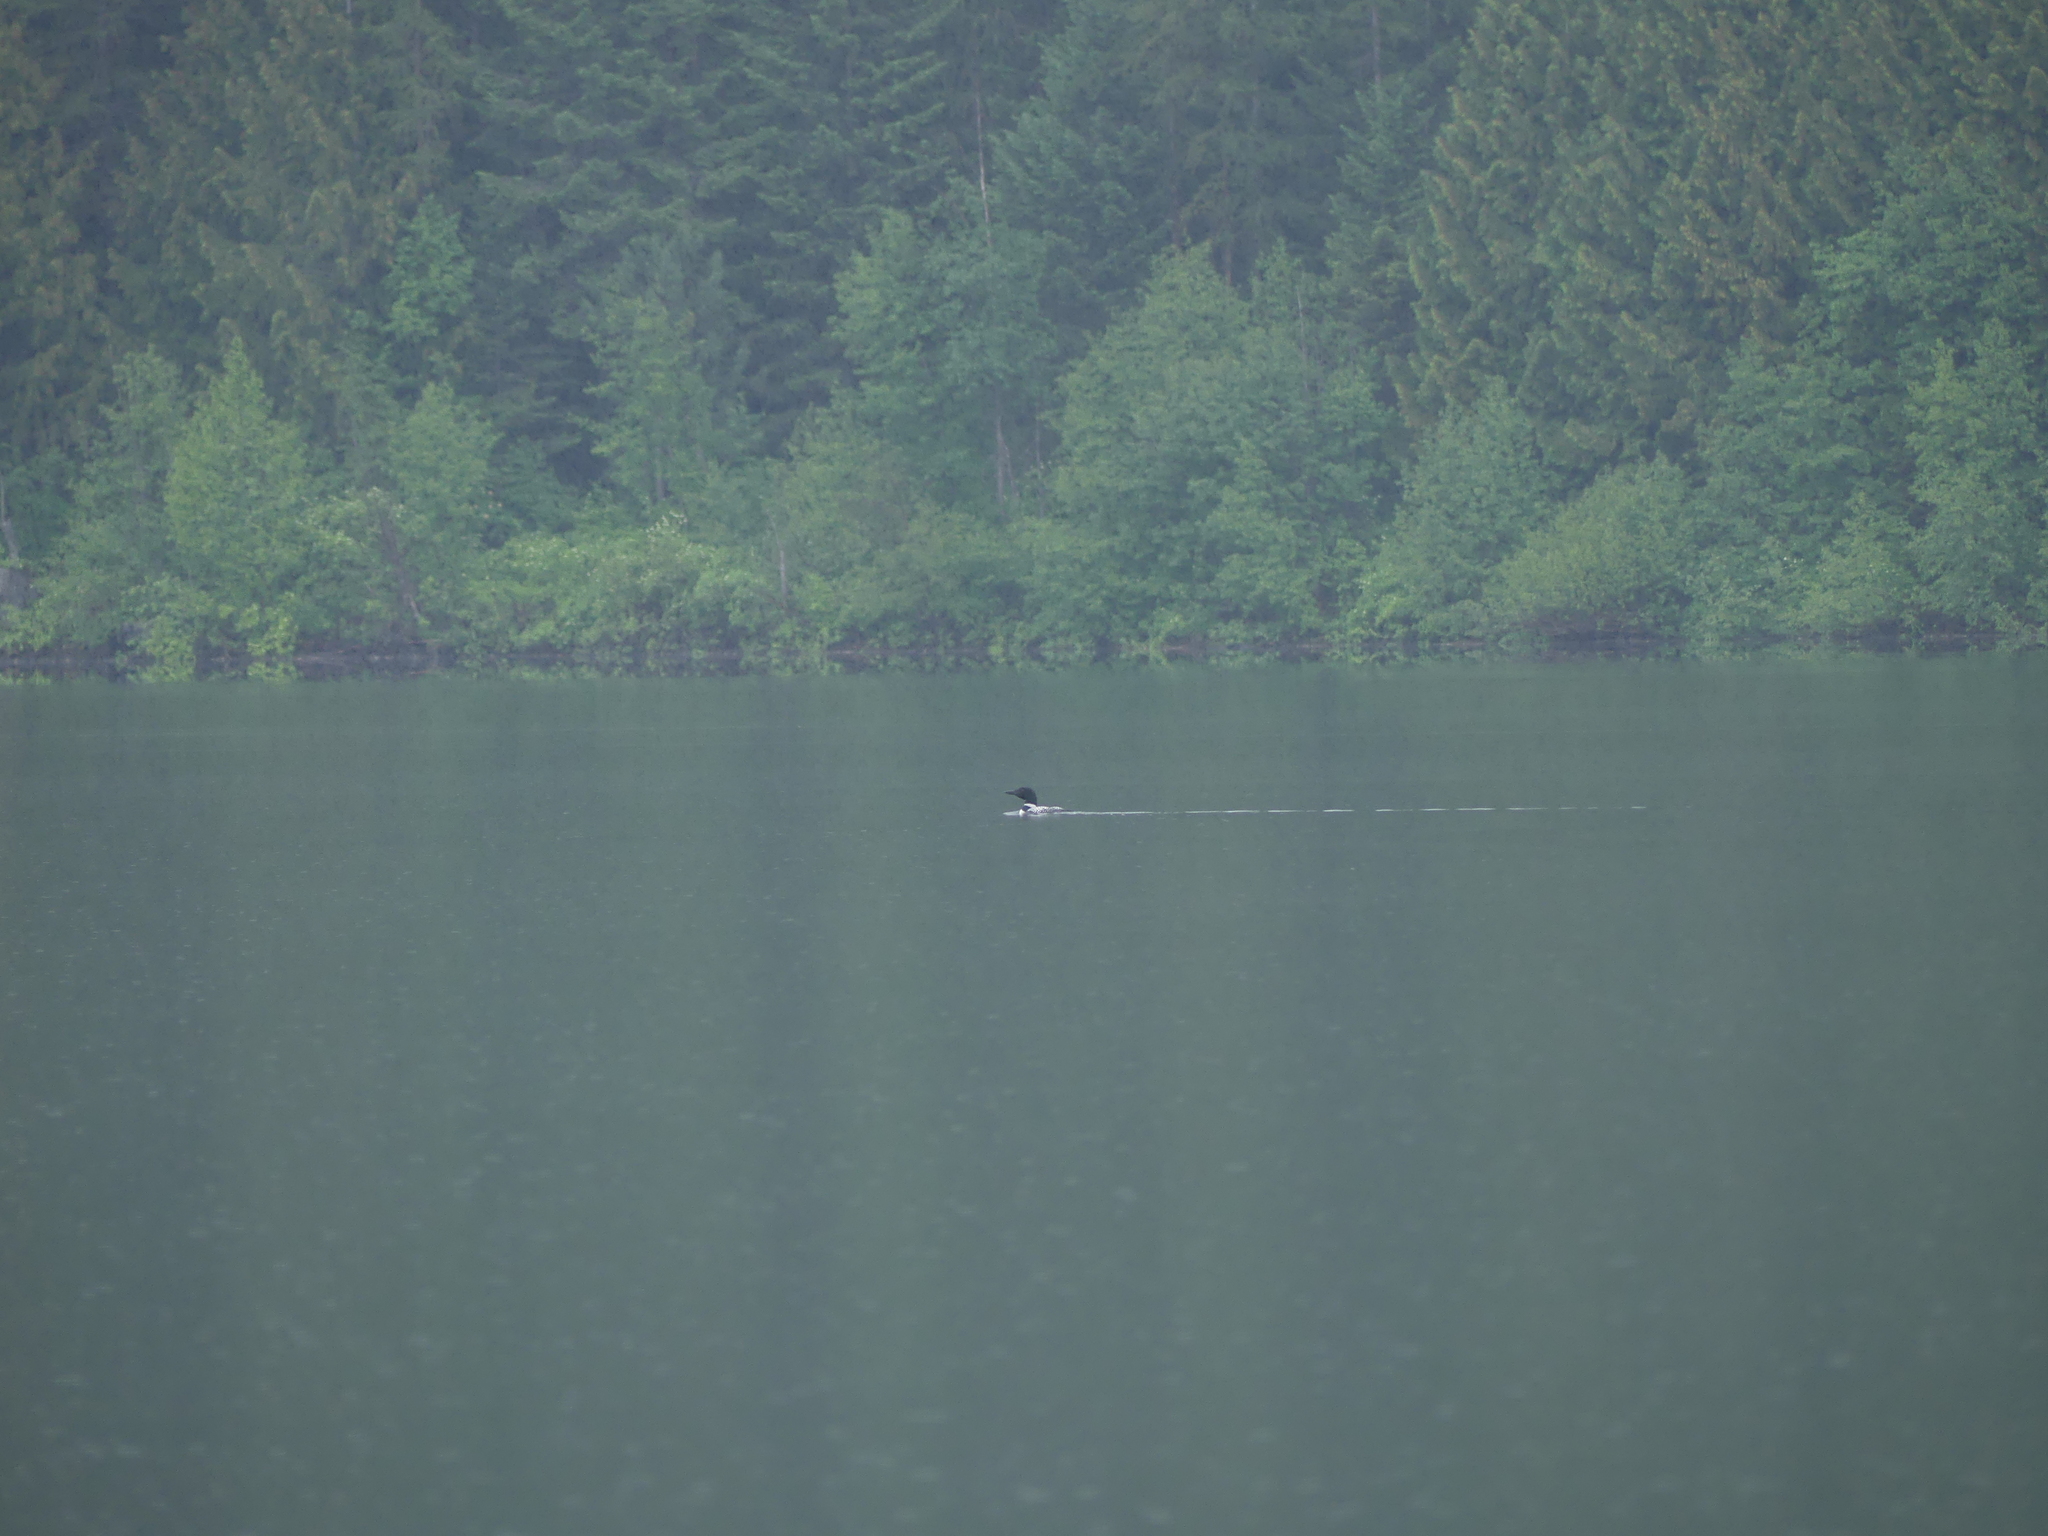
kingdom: Animalia
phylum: Chordata
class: Aves
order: Gaviiformes
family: Gaviidae
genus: Gavia
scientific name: Gavia immer
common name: Common loon
